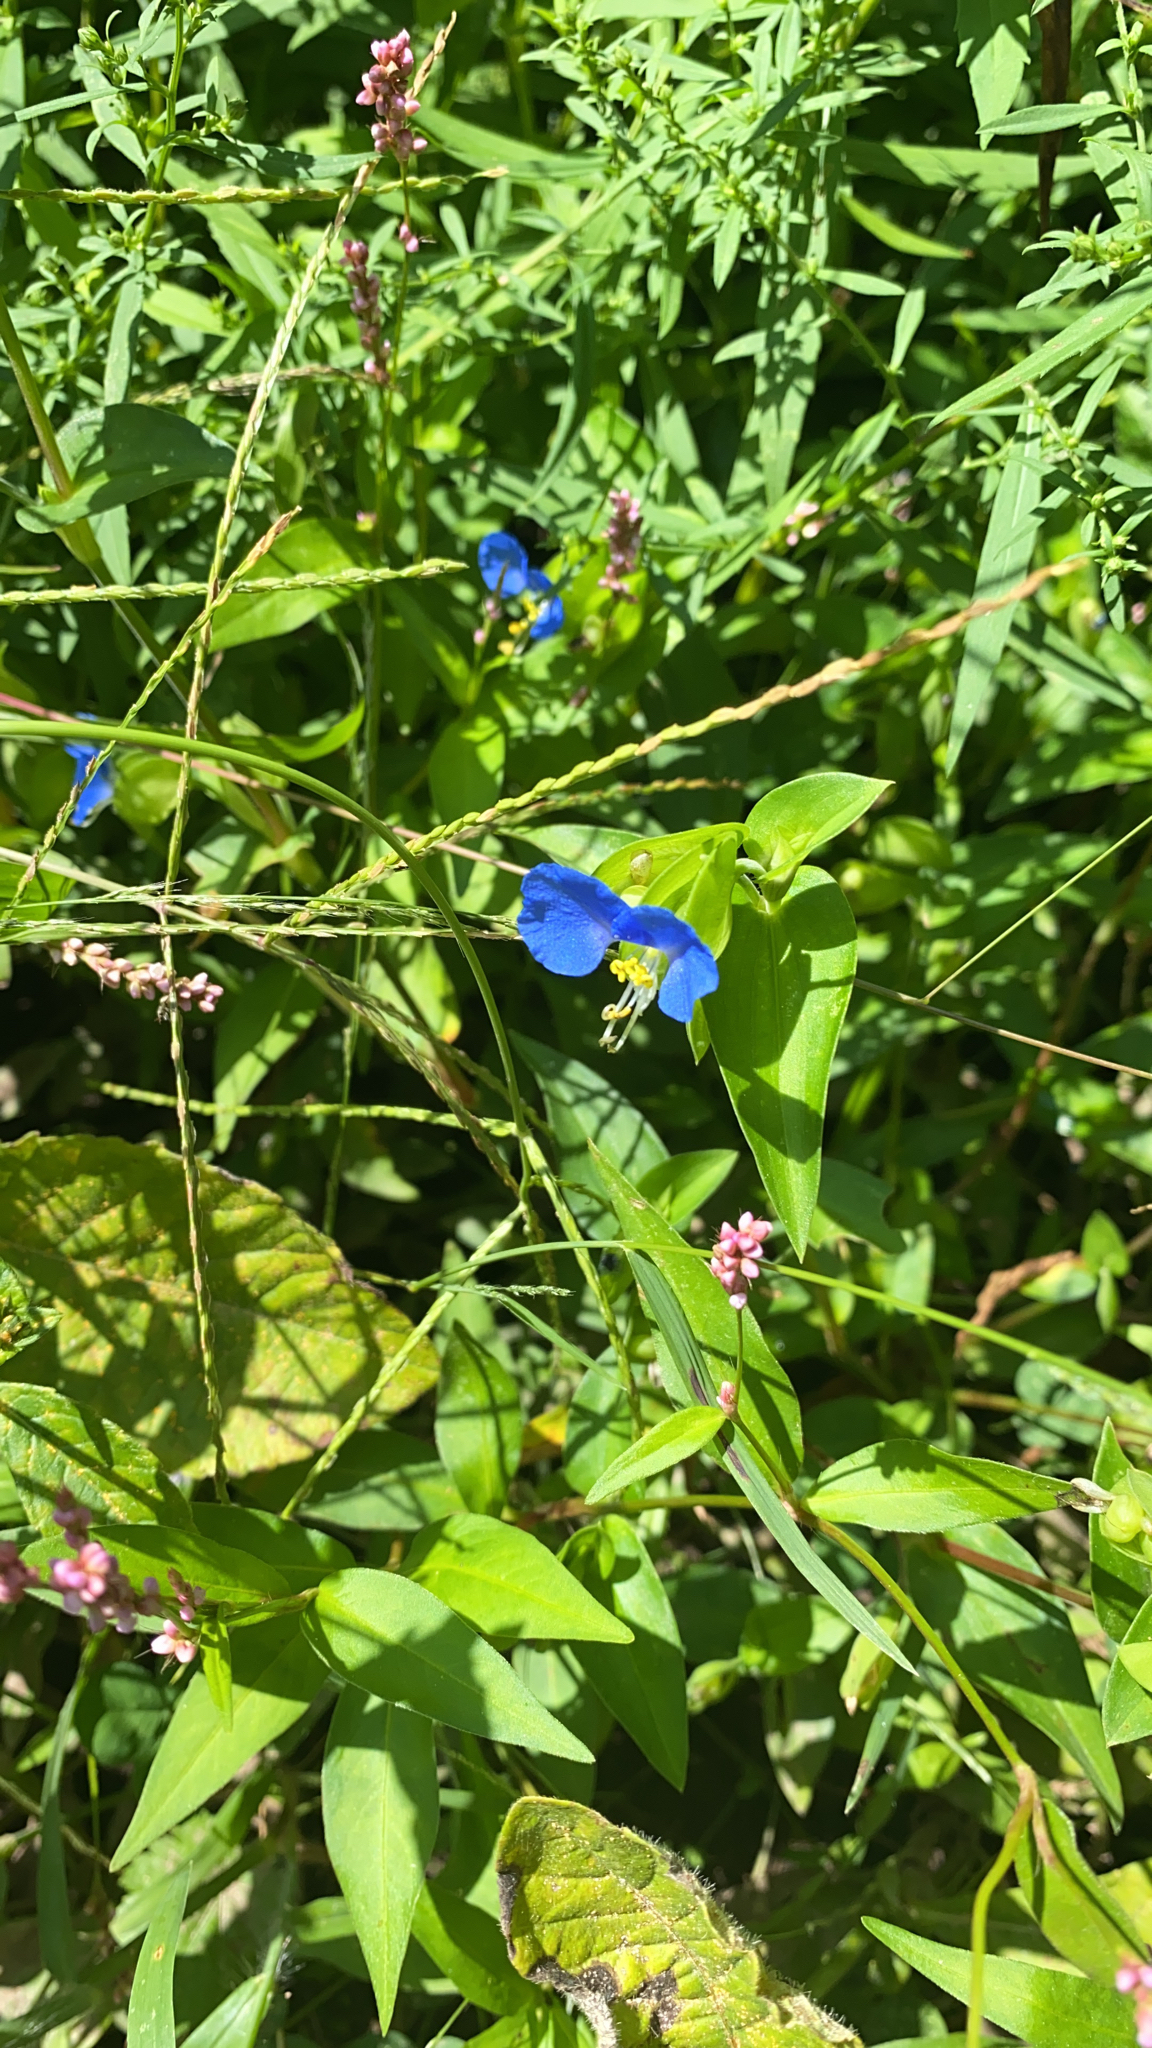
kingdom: Plantae
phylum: Tracheophyta
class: Liliopsida
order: Commelinales
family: Commelinaceae
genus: Commelina
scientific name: Commelina communis
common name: Asiatic dayflower
